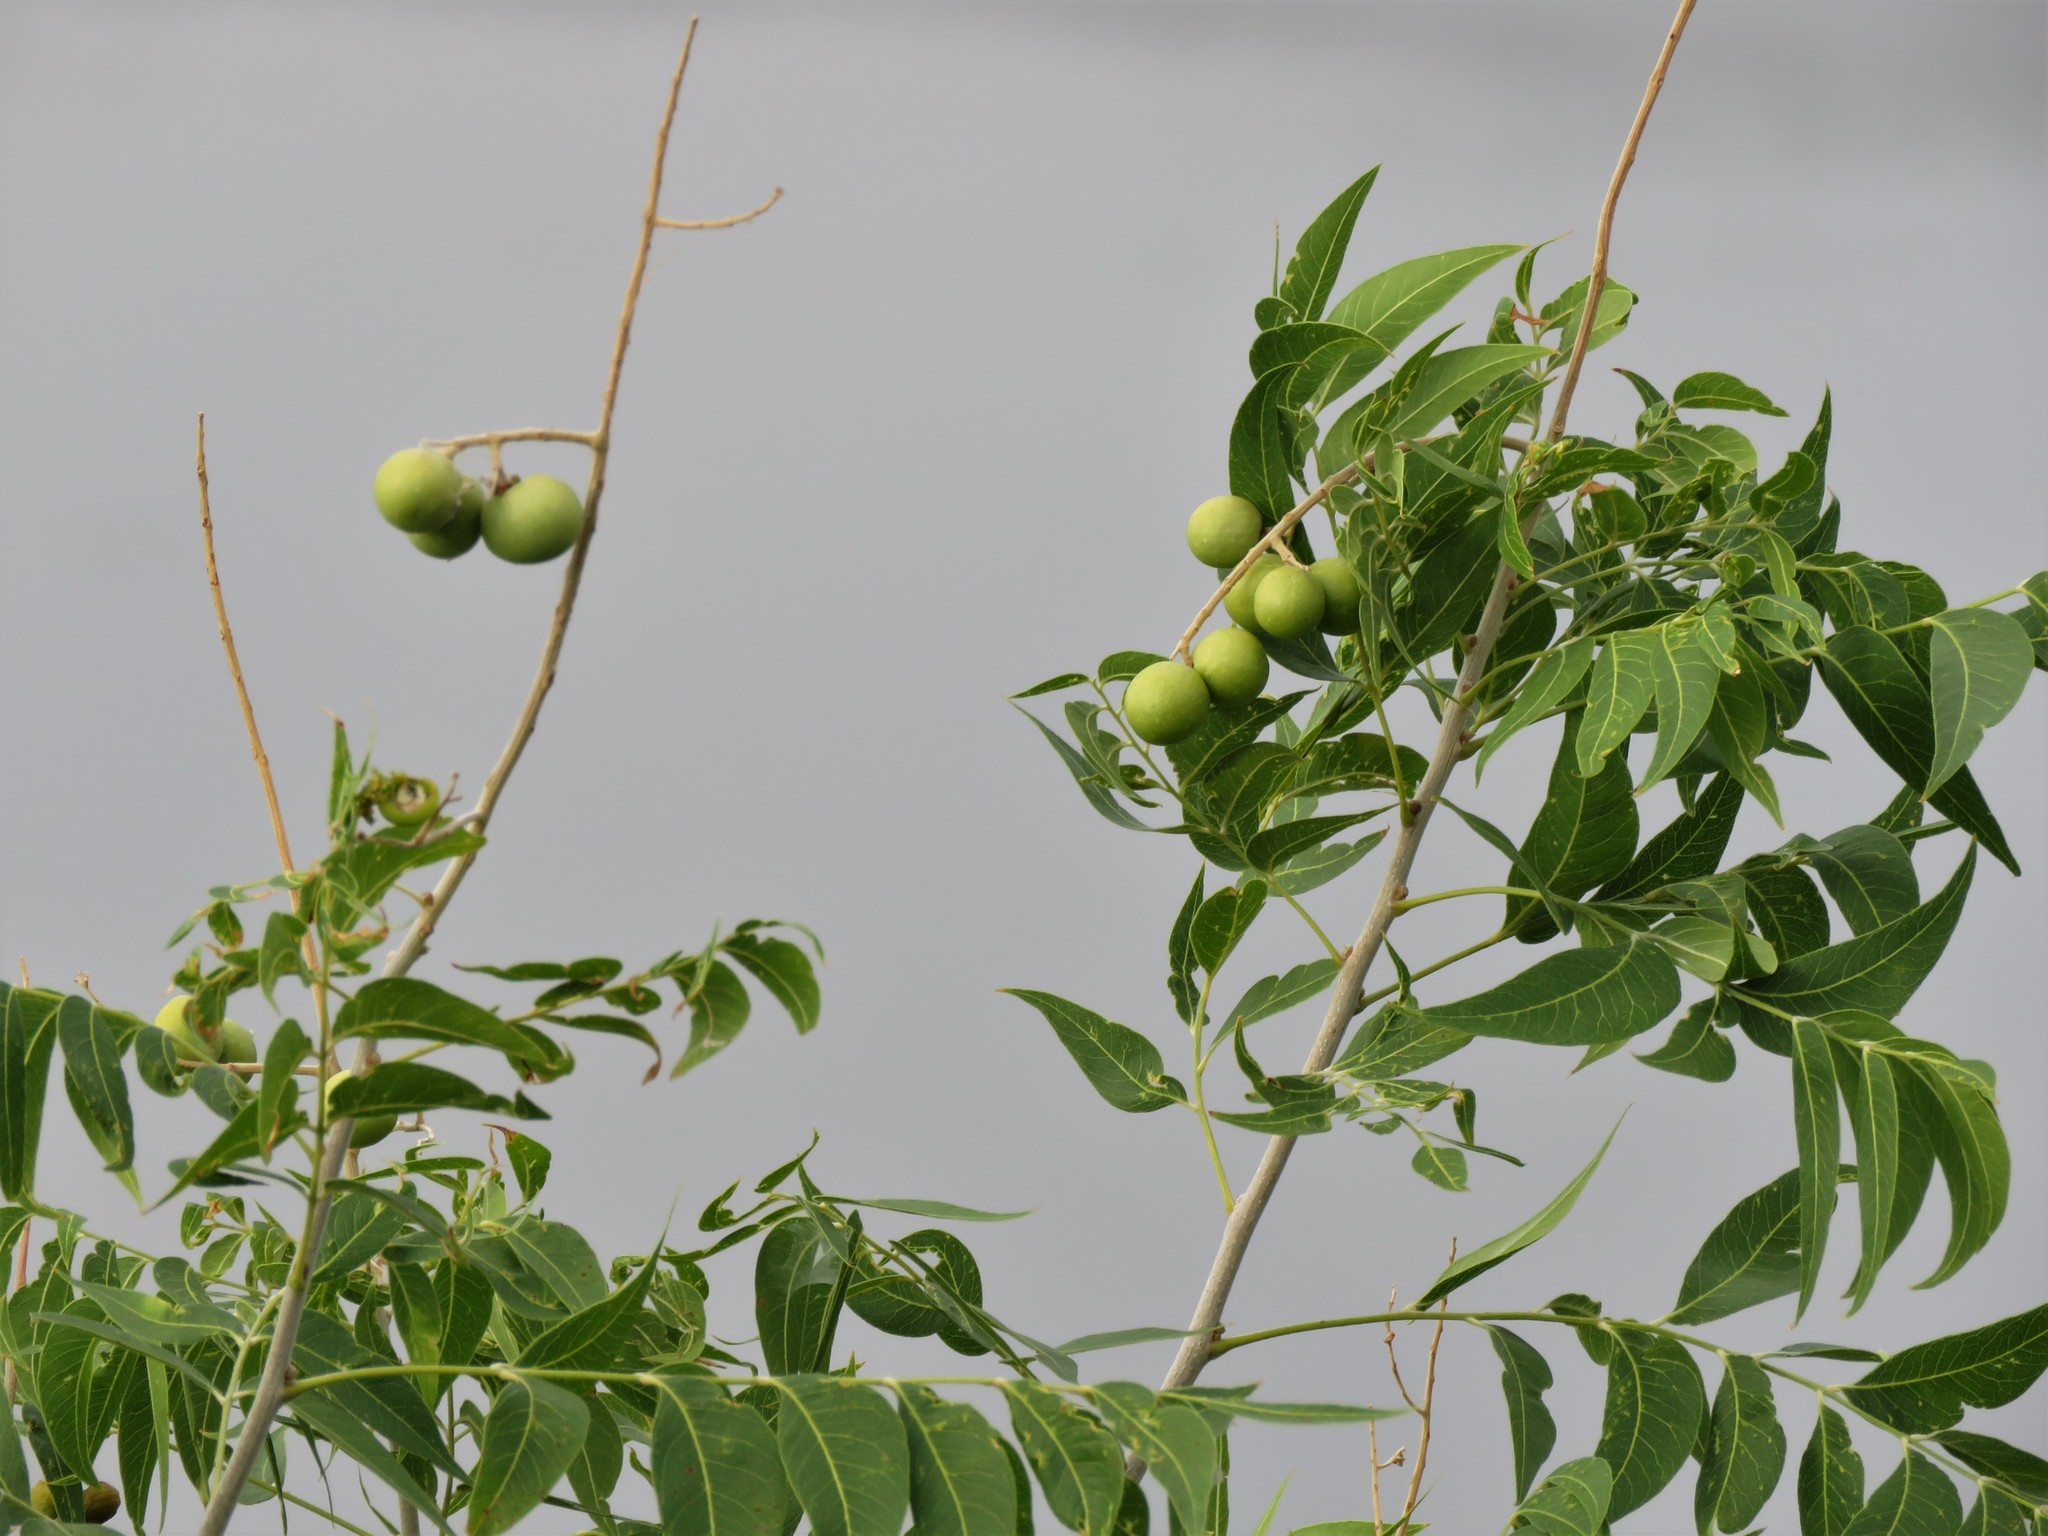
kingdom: Plantae
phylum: Tracheophyta
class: Magnoliopsida
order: Sapindales
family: Sapindaceae
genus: Sapindus
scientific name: Sapindus drummondii
